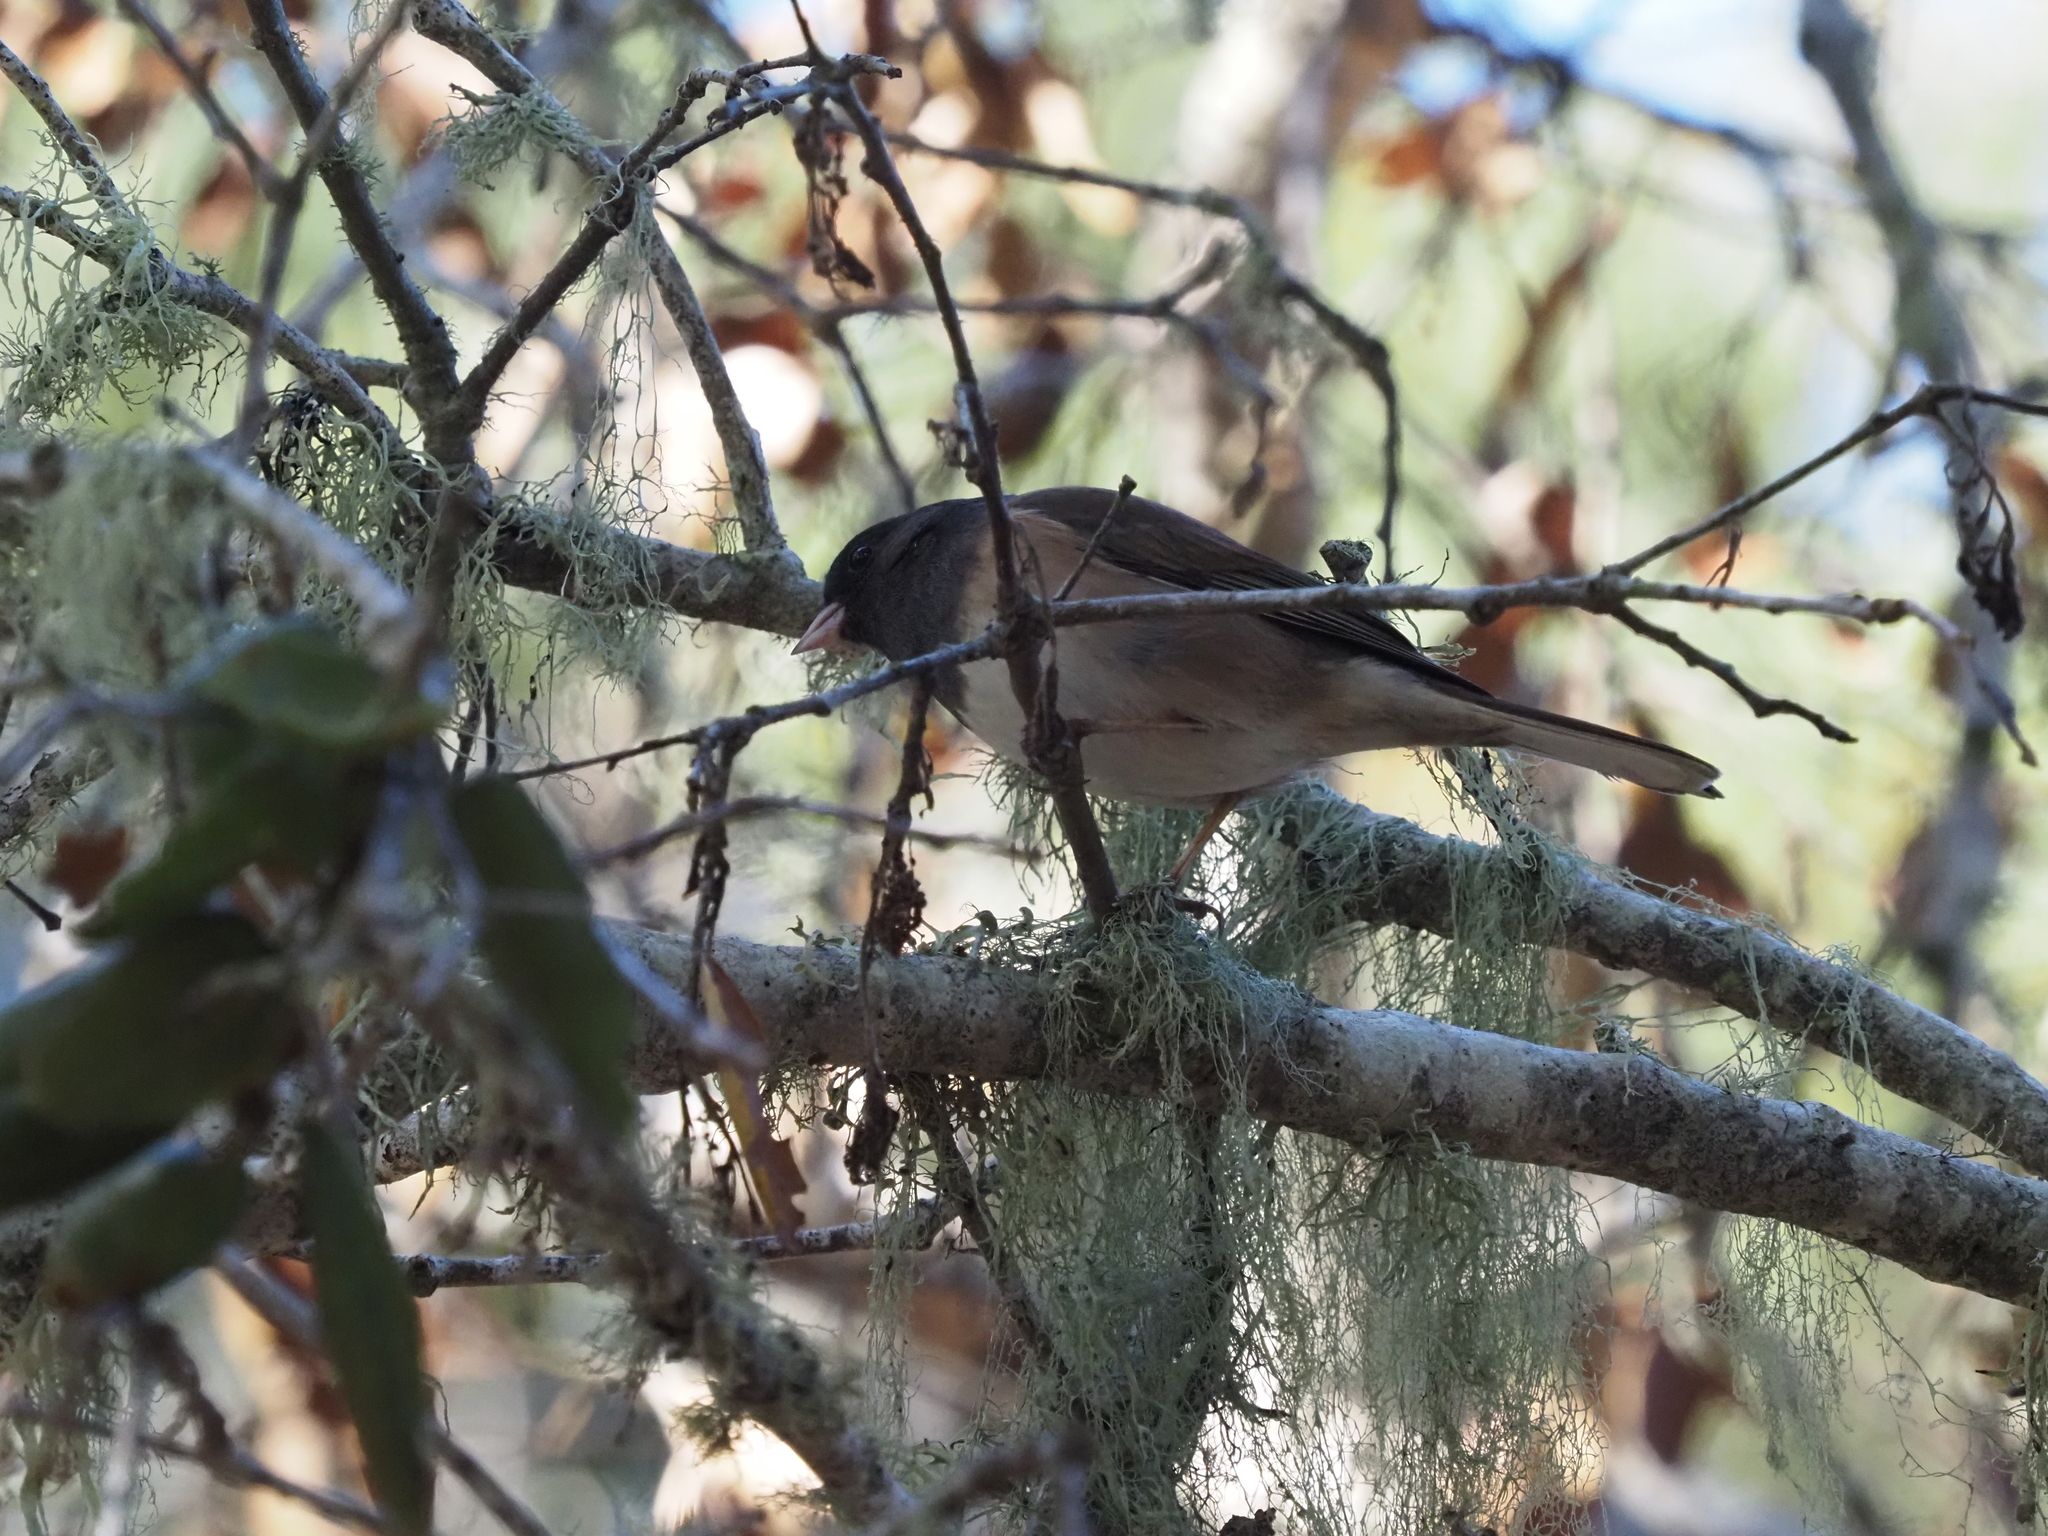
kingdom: Animalia
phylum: Chordata
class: Aves
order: Passeriformes
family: Passerellidae
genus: Junco
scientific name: Junco hyemalis
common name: Dark-eyed junco
